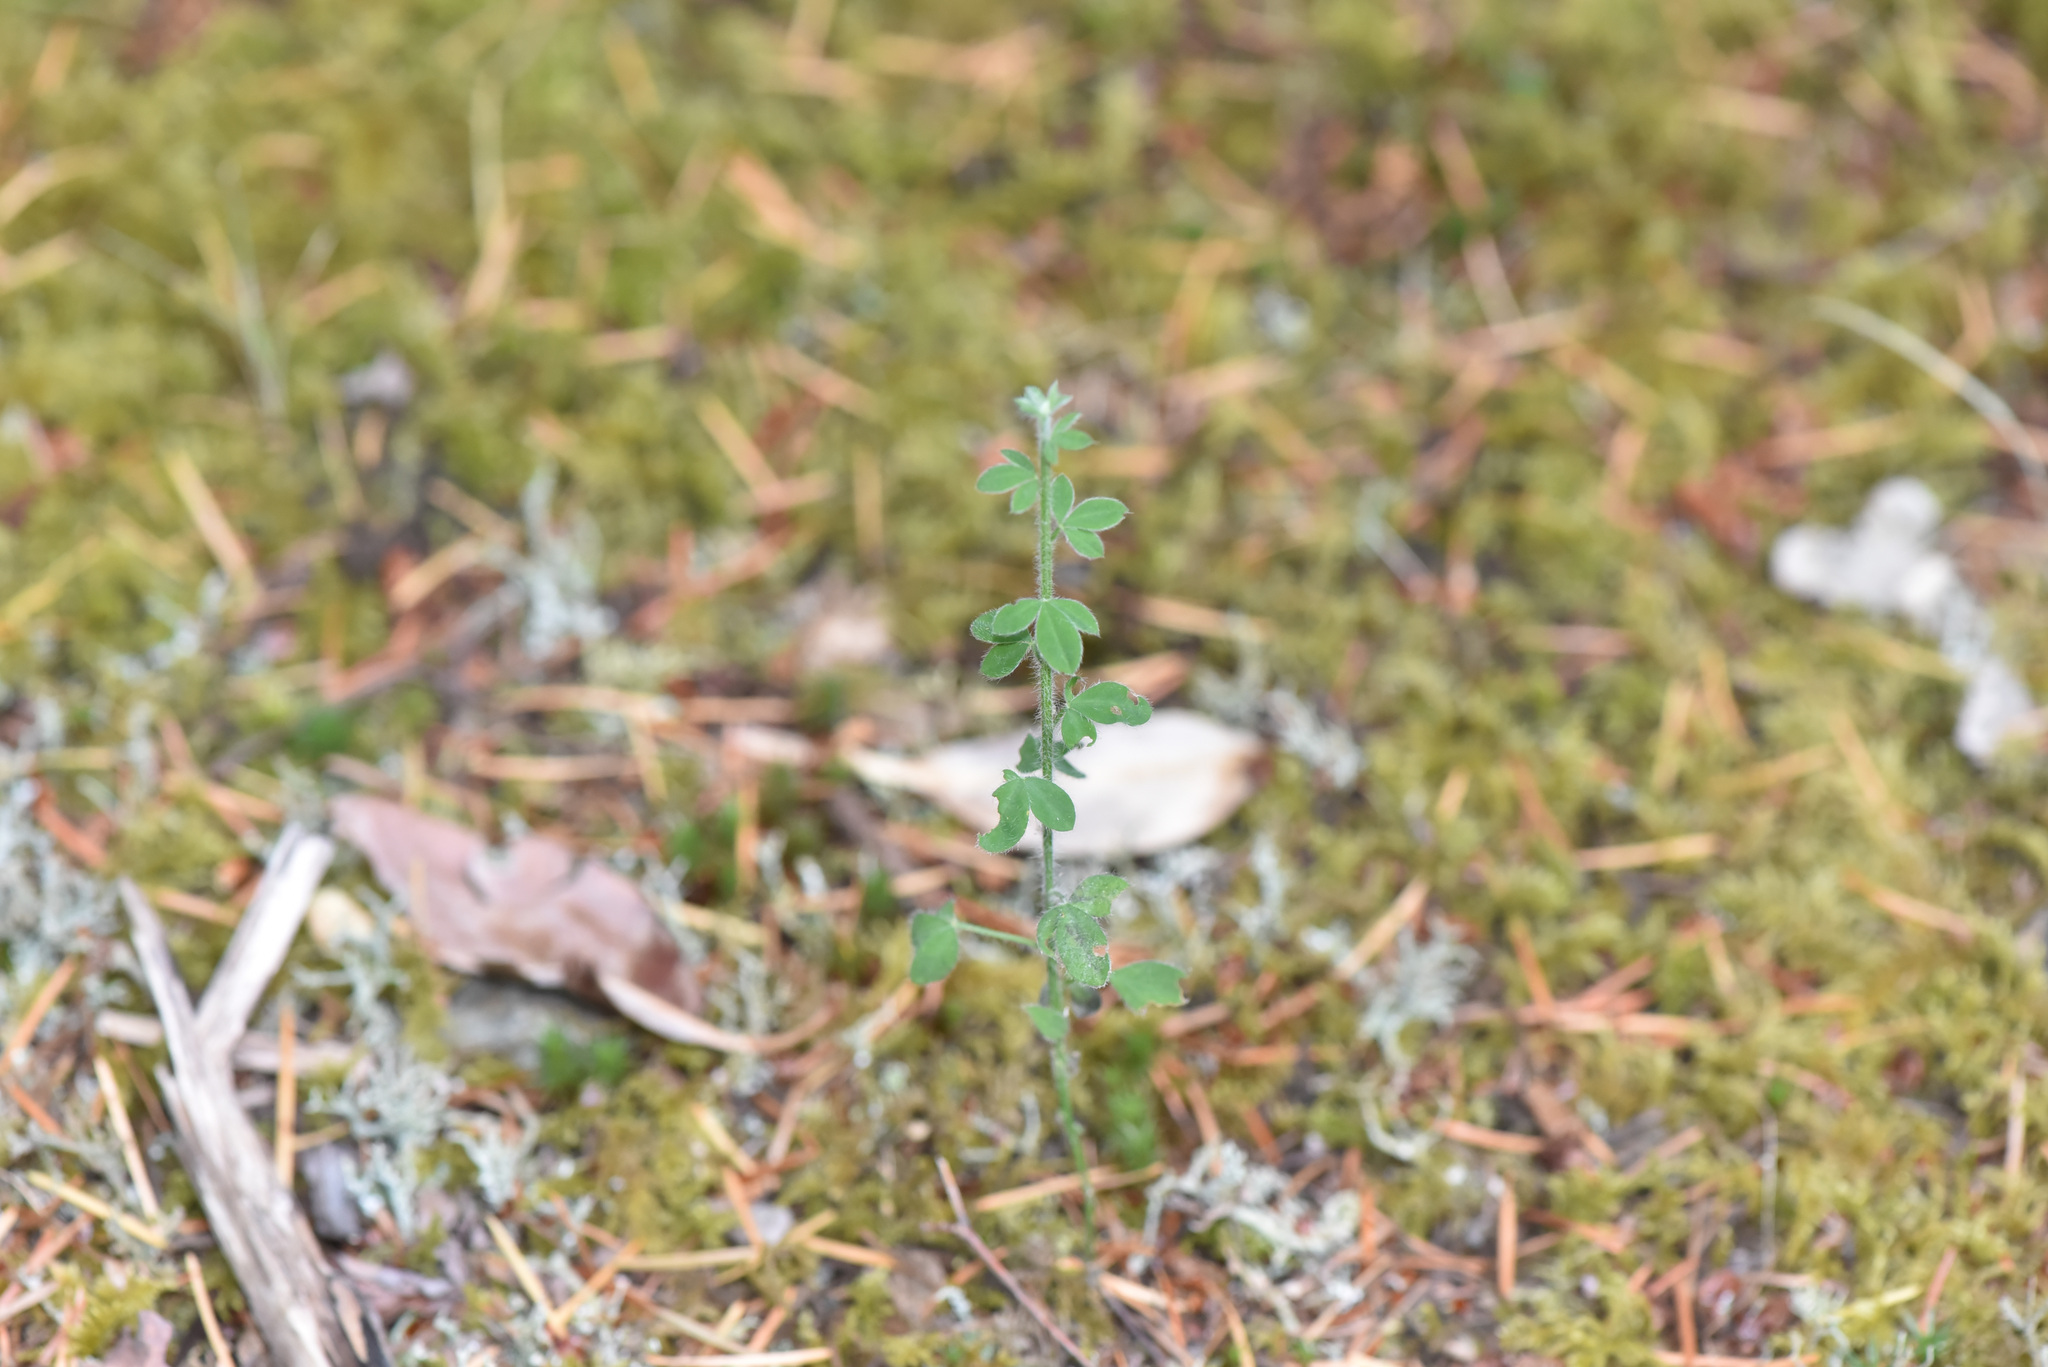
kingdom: Plantae
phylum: Tracheophyta
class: Magnoliopsida
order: Fabales
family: Fabaceae
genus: Cytisus
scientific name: Cytisus scoparius
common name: Scotch broom
